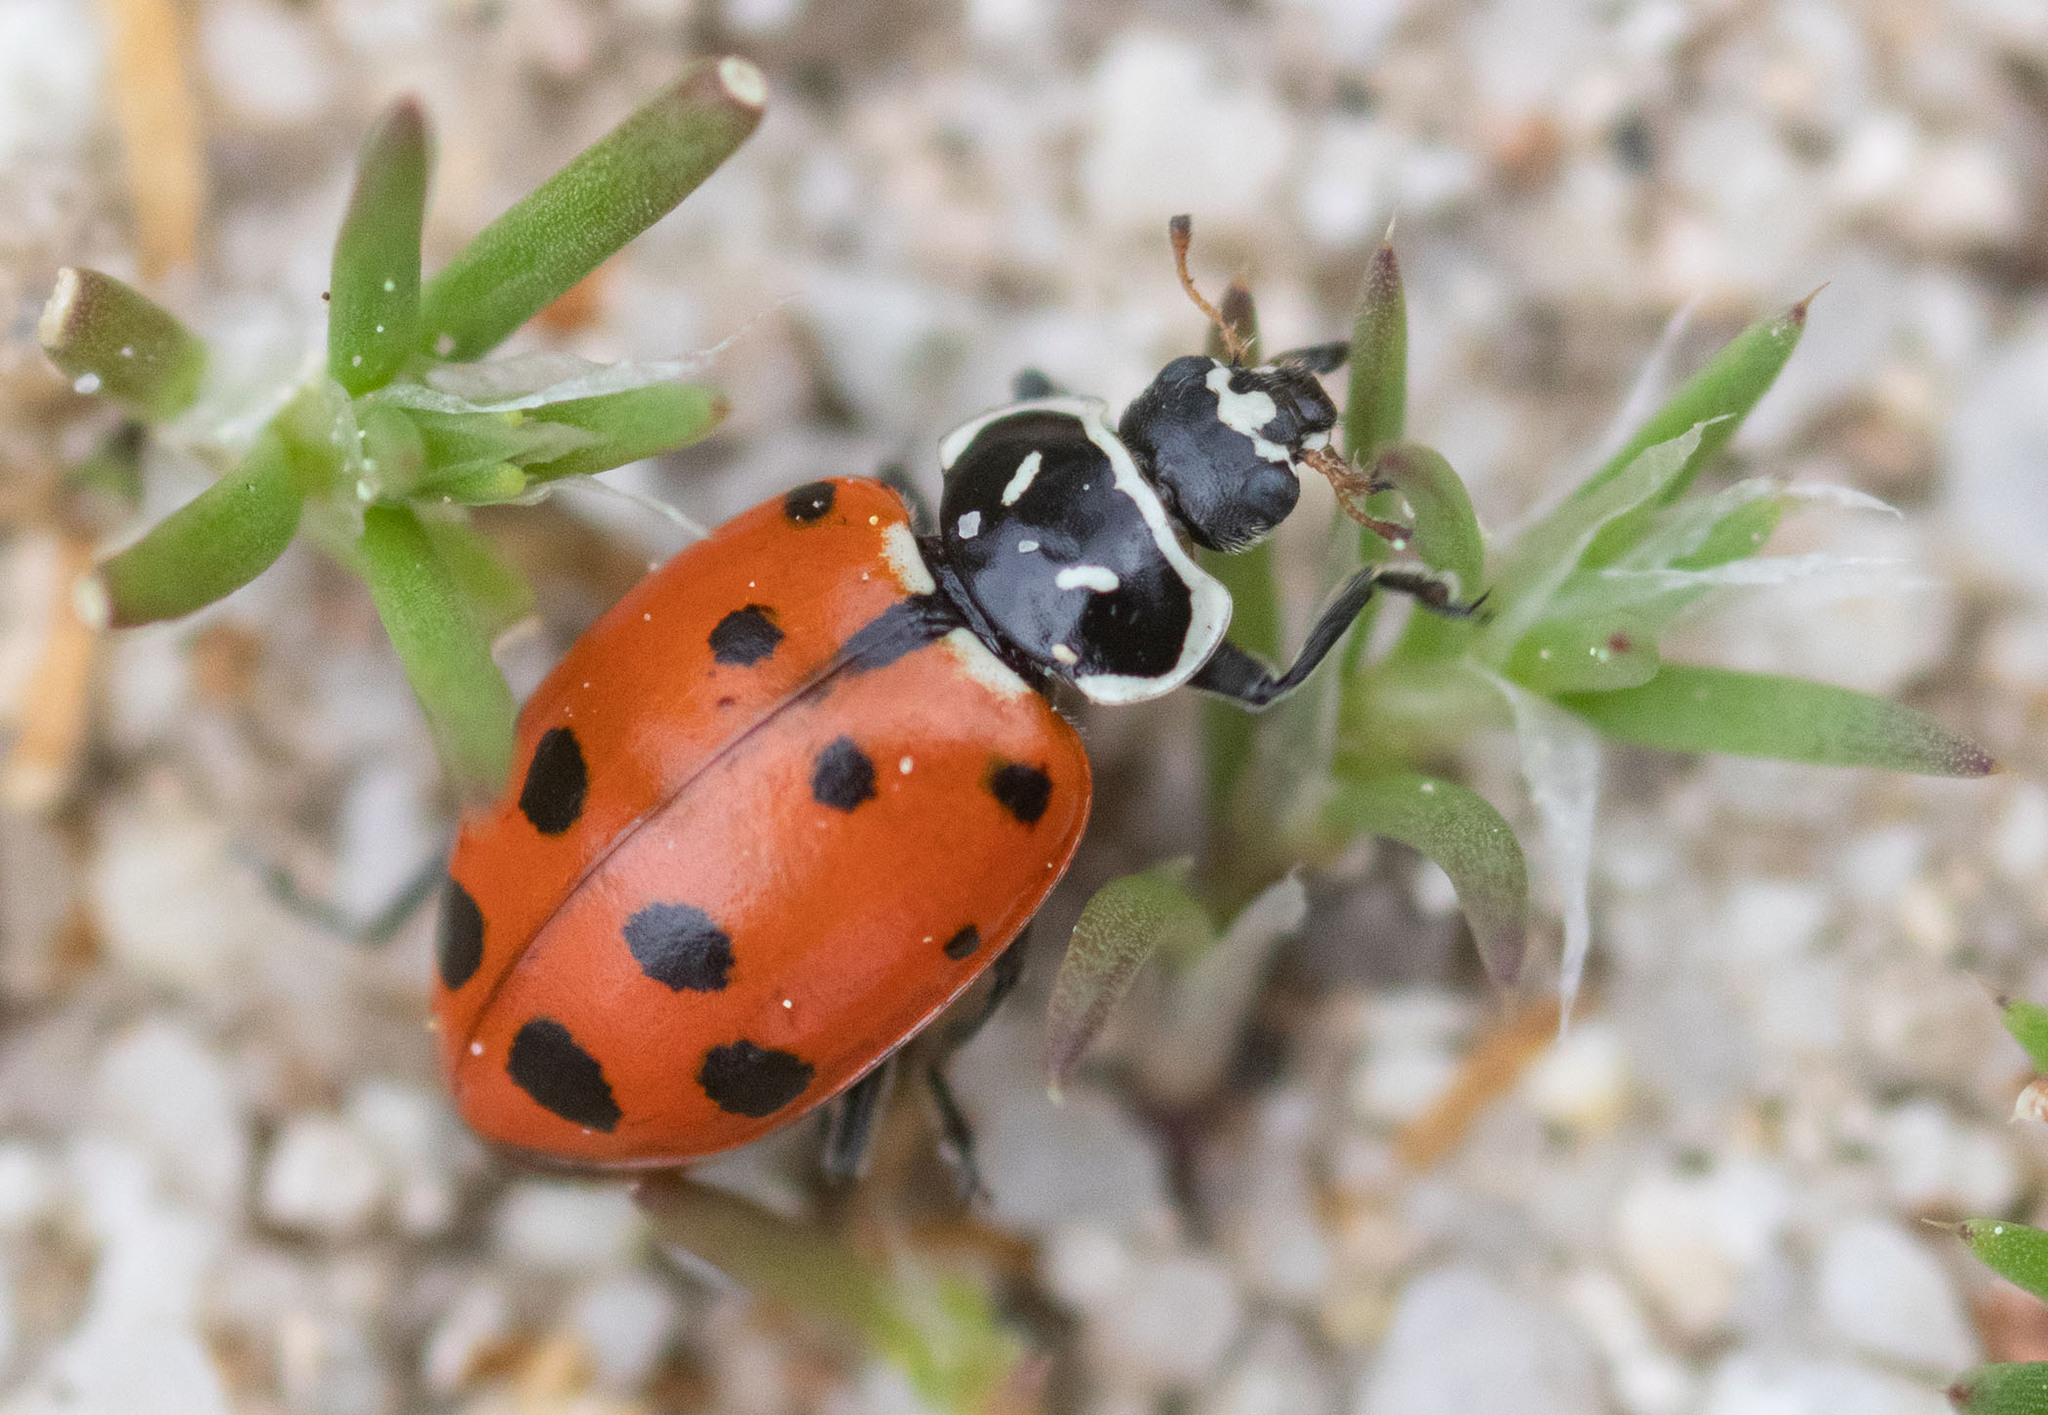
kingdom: Animalia
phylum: Arthropoda
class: Insecta
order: Coleoptera
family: Coccinellidae
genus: Hippodamia
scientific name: Hippodamia convergens
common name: Convergent lady beetle
